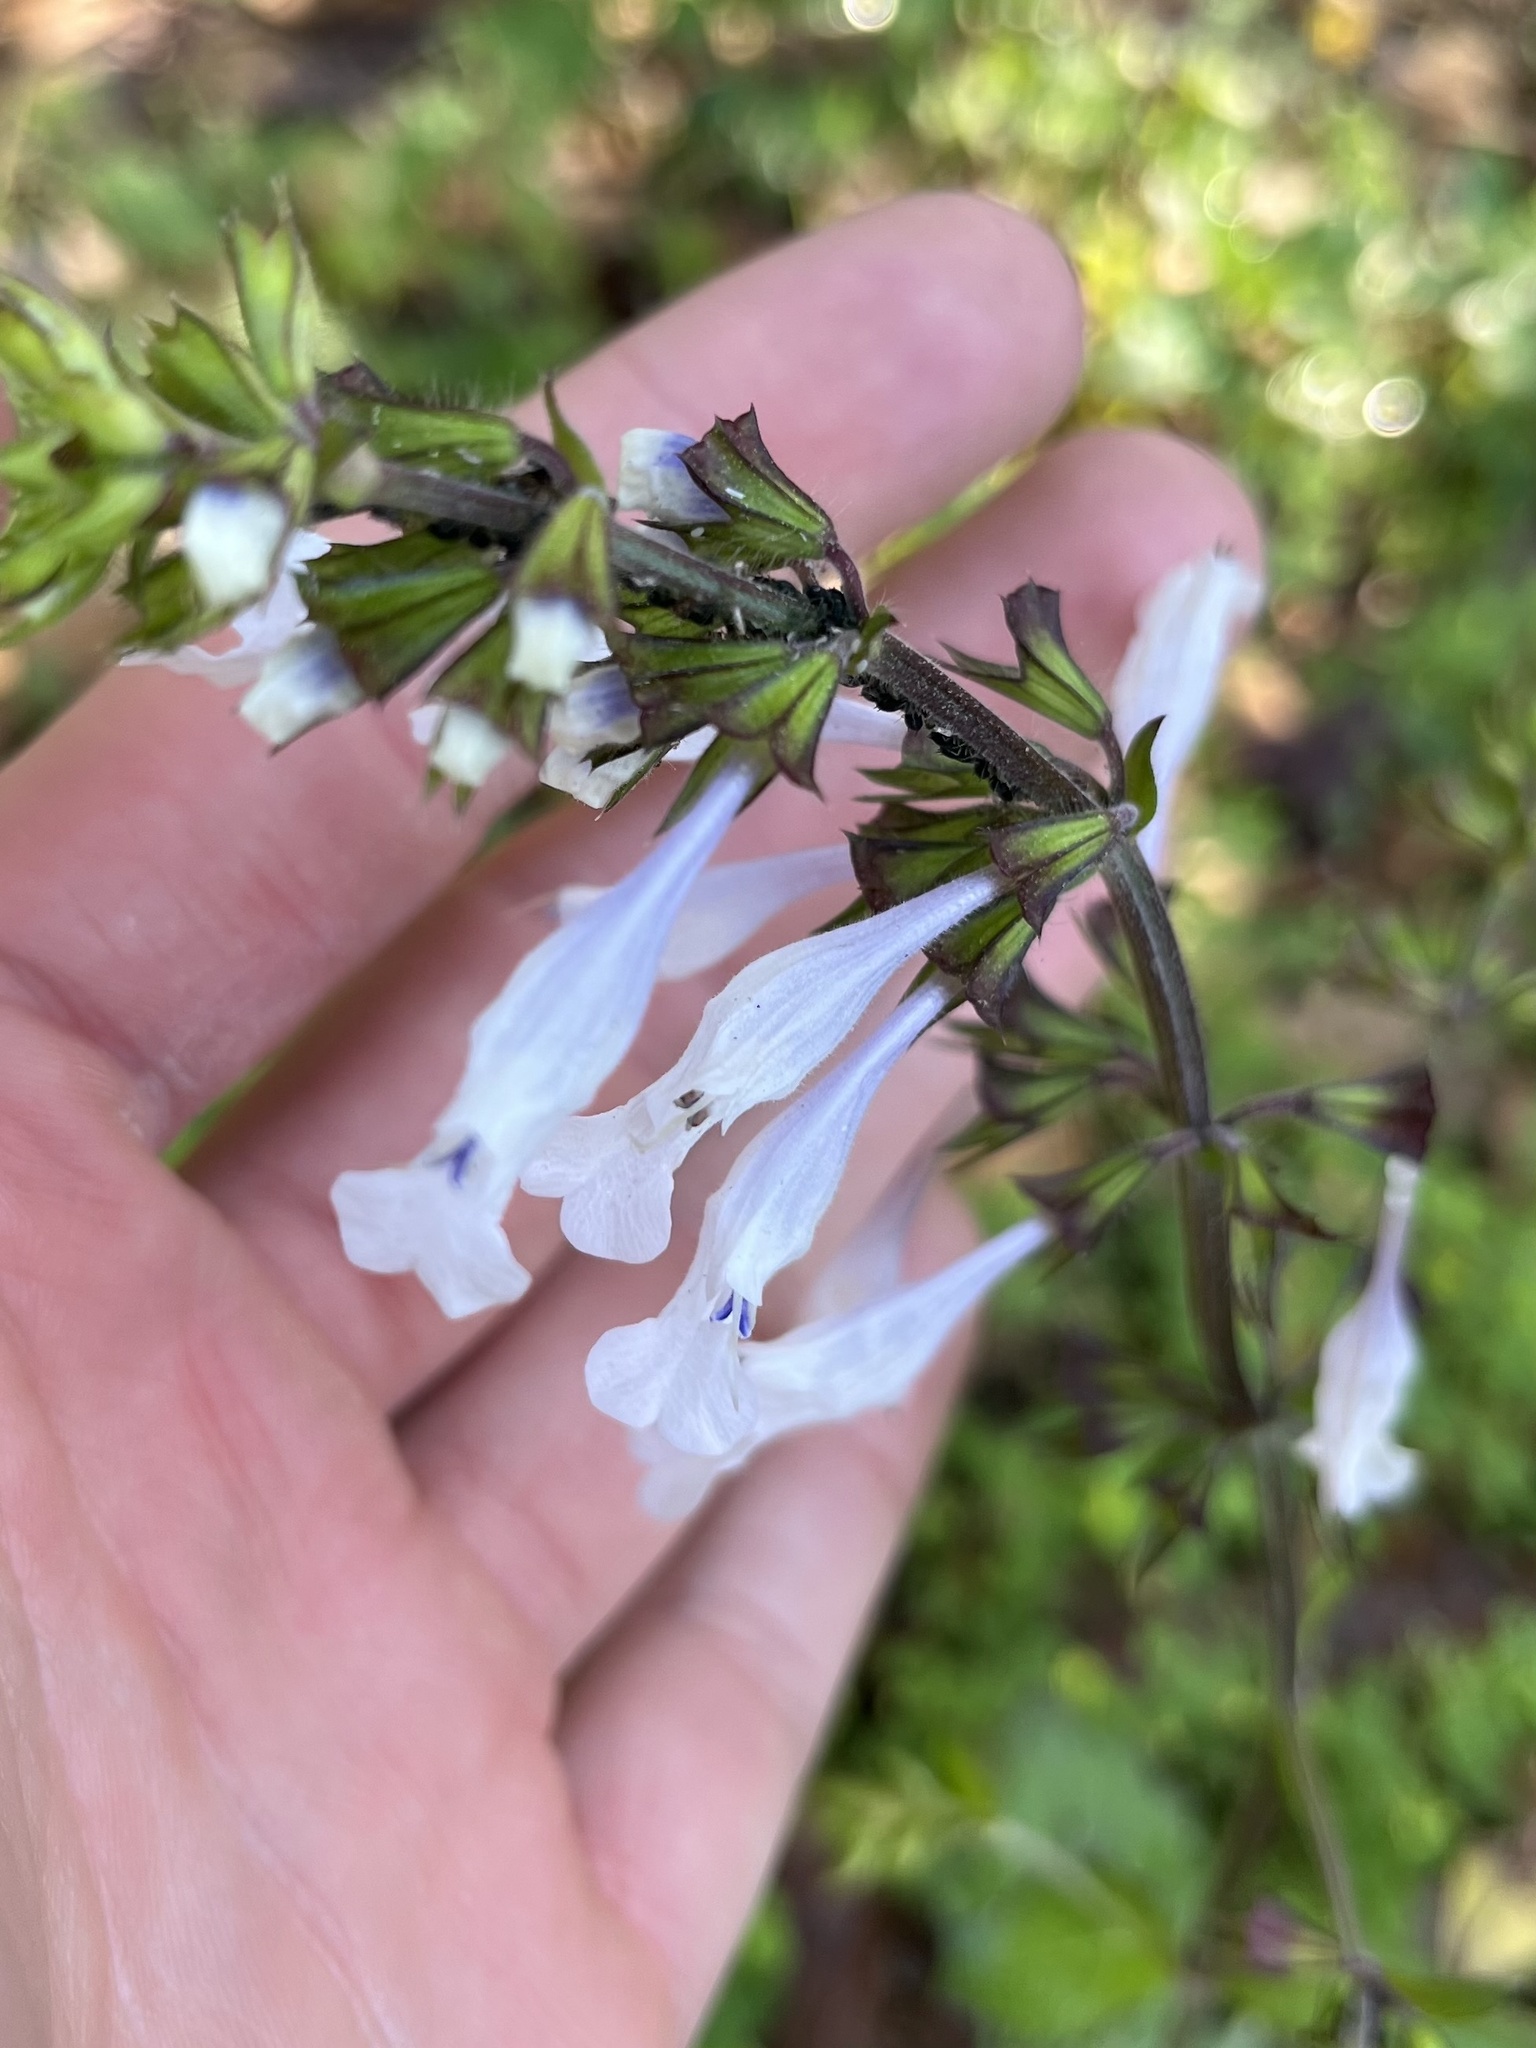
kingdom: Plantae
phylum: Tracheophyta
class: Magnoliopsida
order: Lamiales
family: Lamiaceae
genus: Salvia
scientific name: Salvia lyrata
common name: Cancerweed
